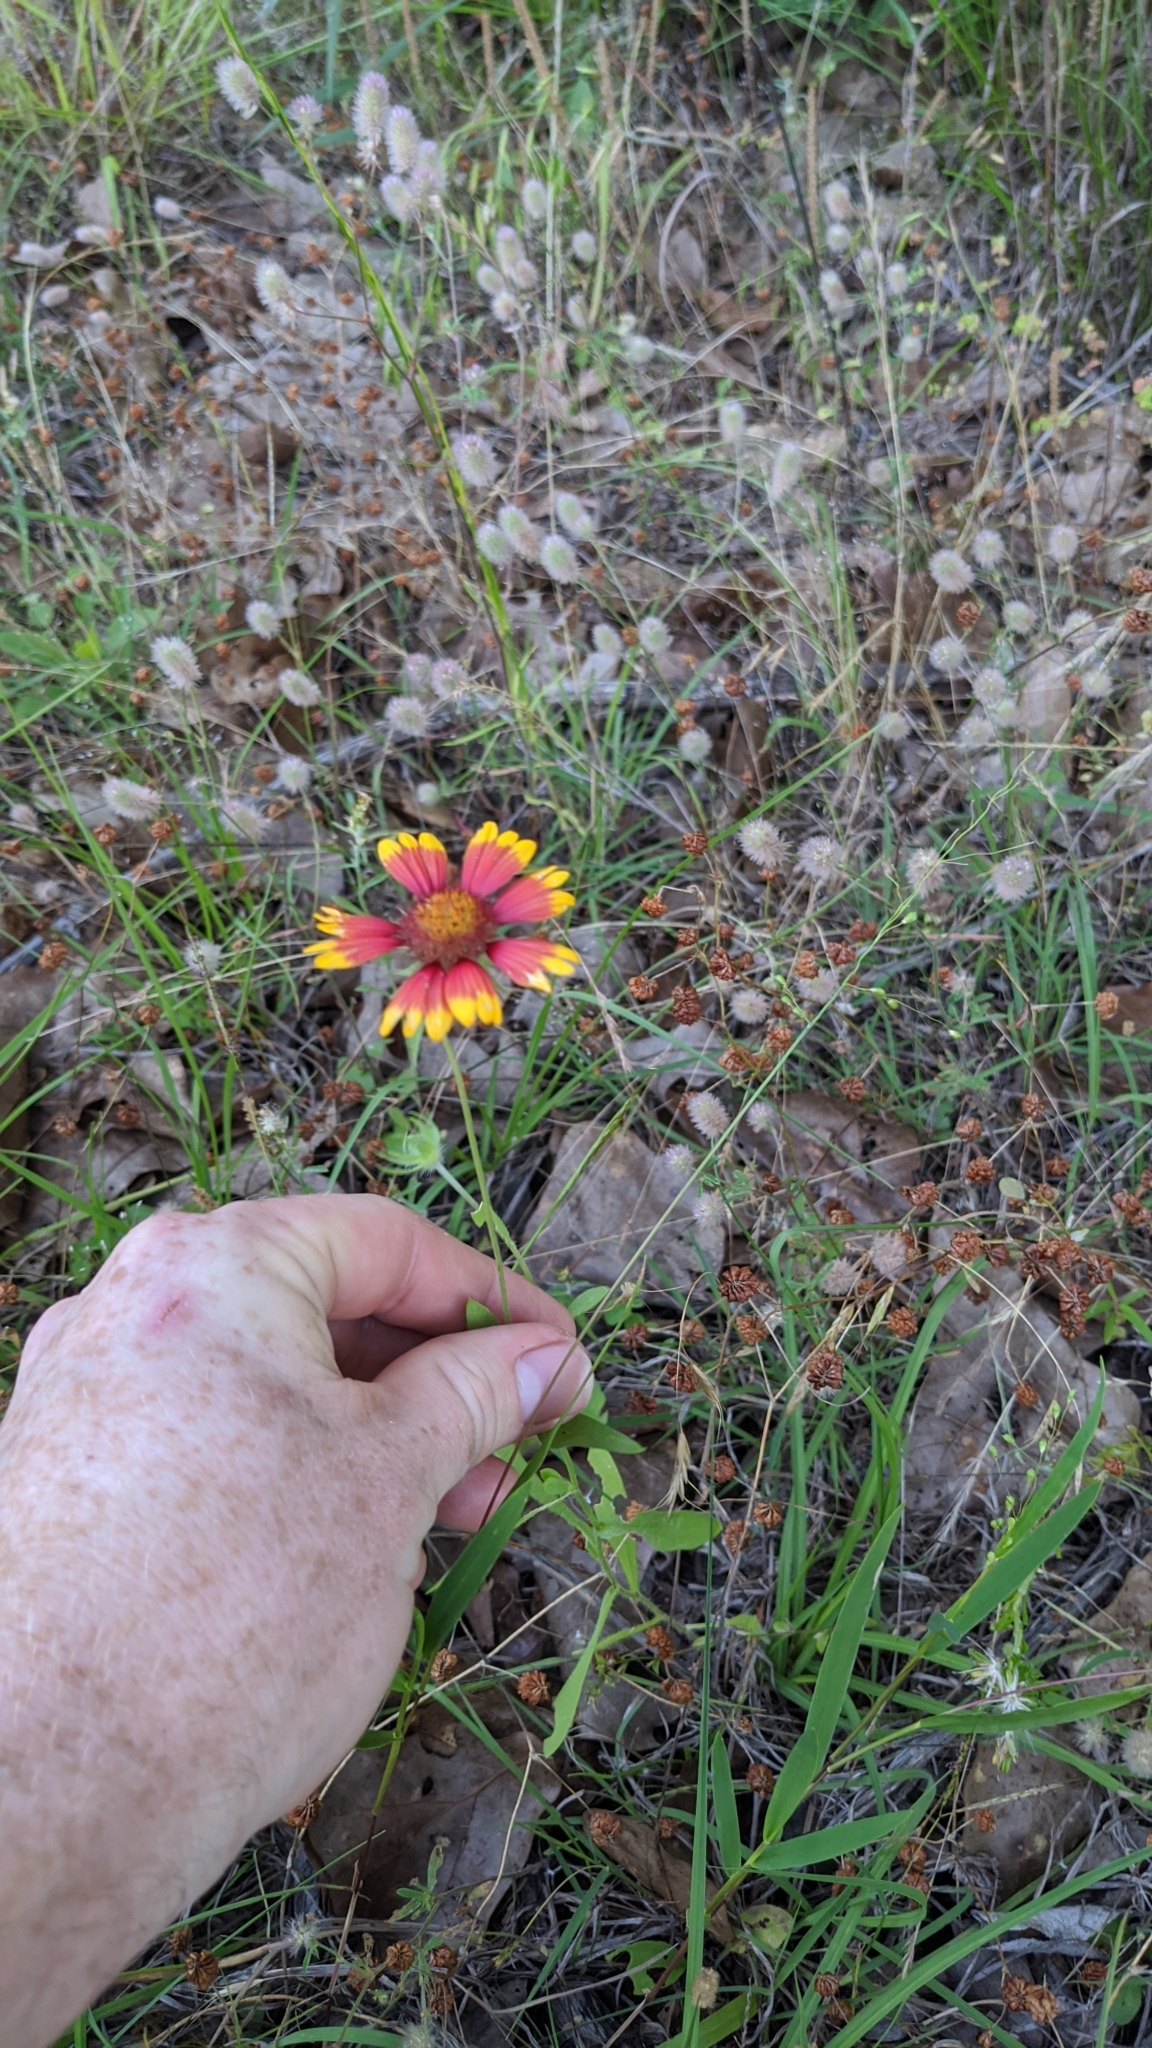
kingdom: Plantae
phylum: Tracheophyta
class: Magnoliopsida
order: Asterales
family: Asteraceae
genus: Gaillardia
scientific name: Gaillardia pulchella
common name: Firewheel
